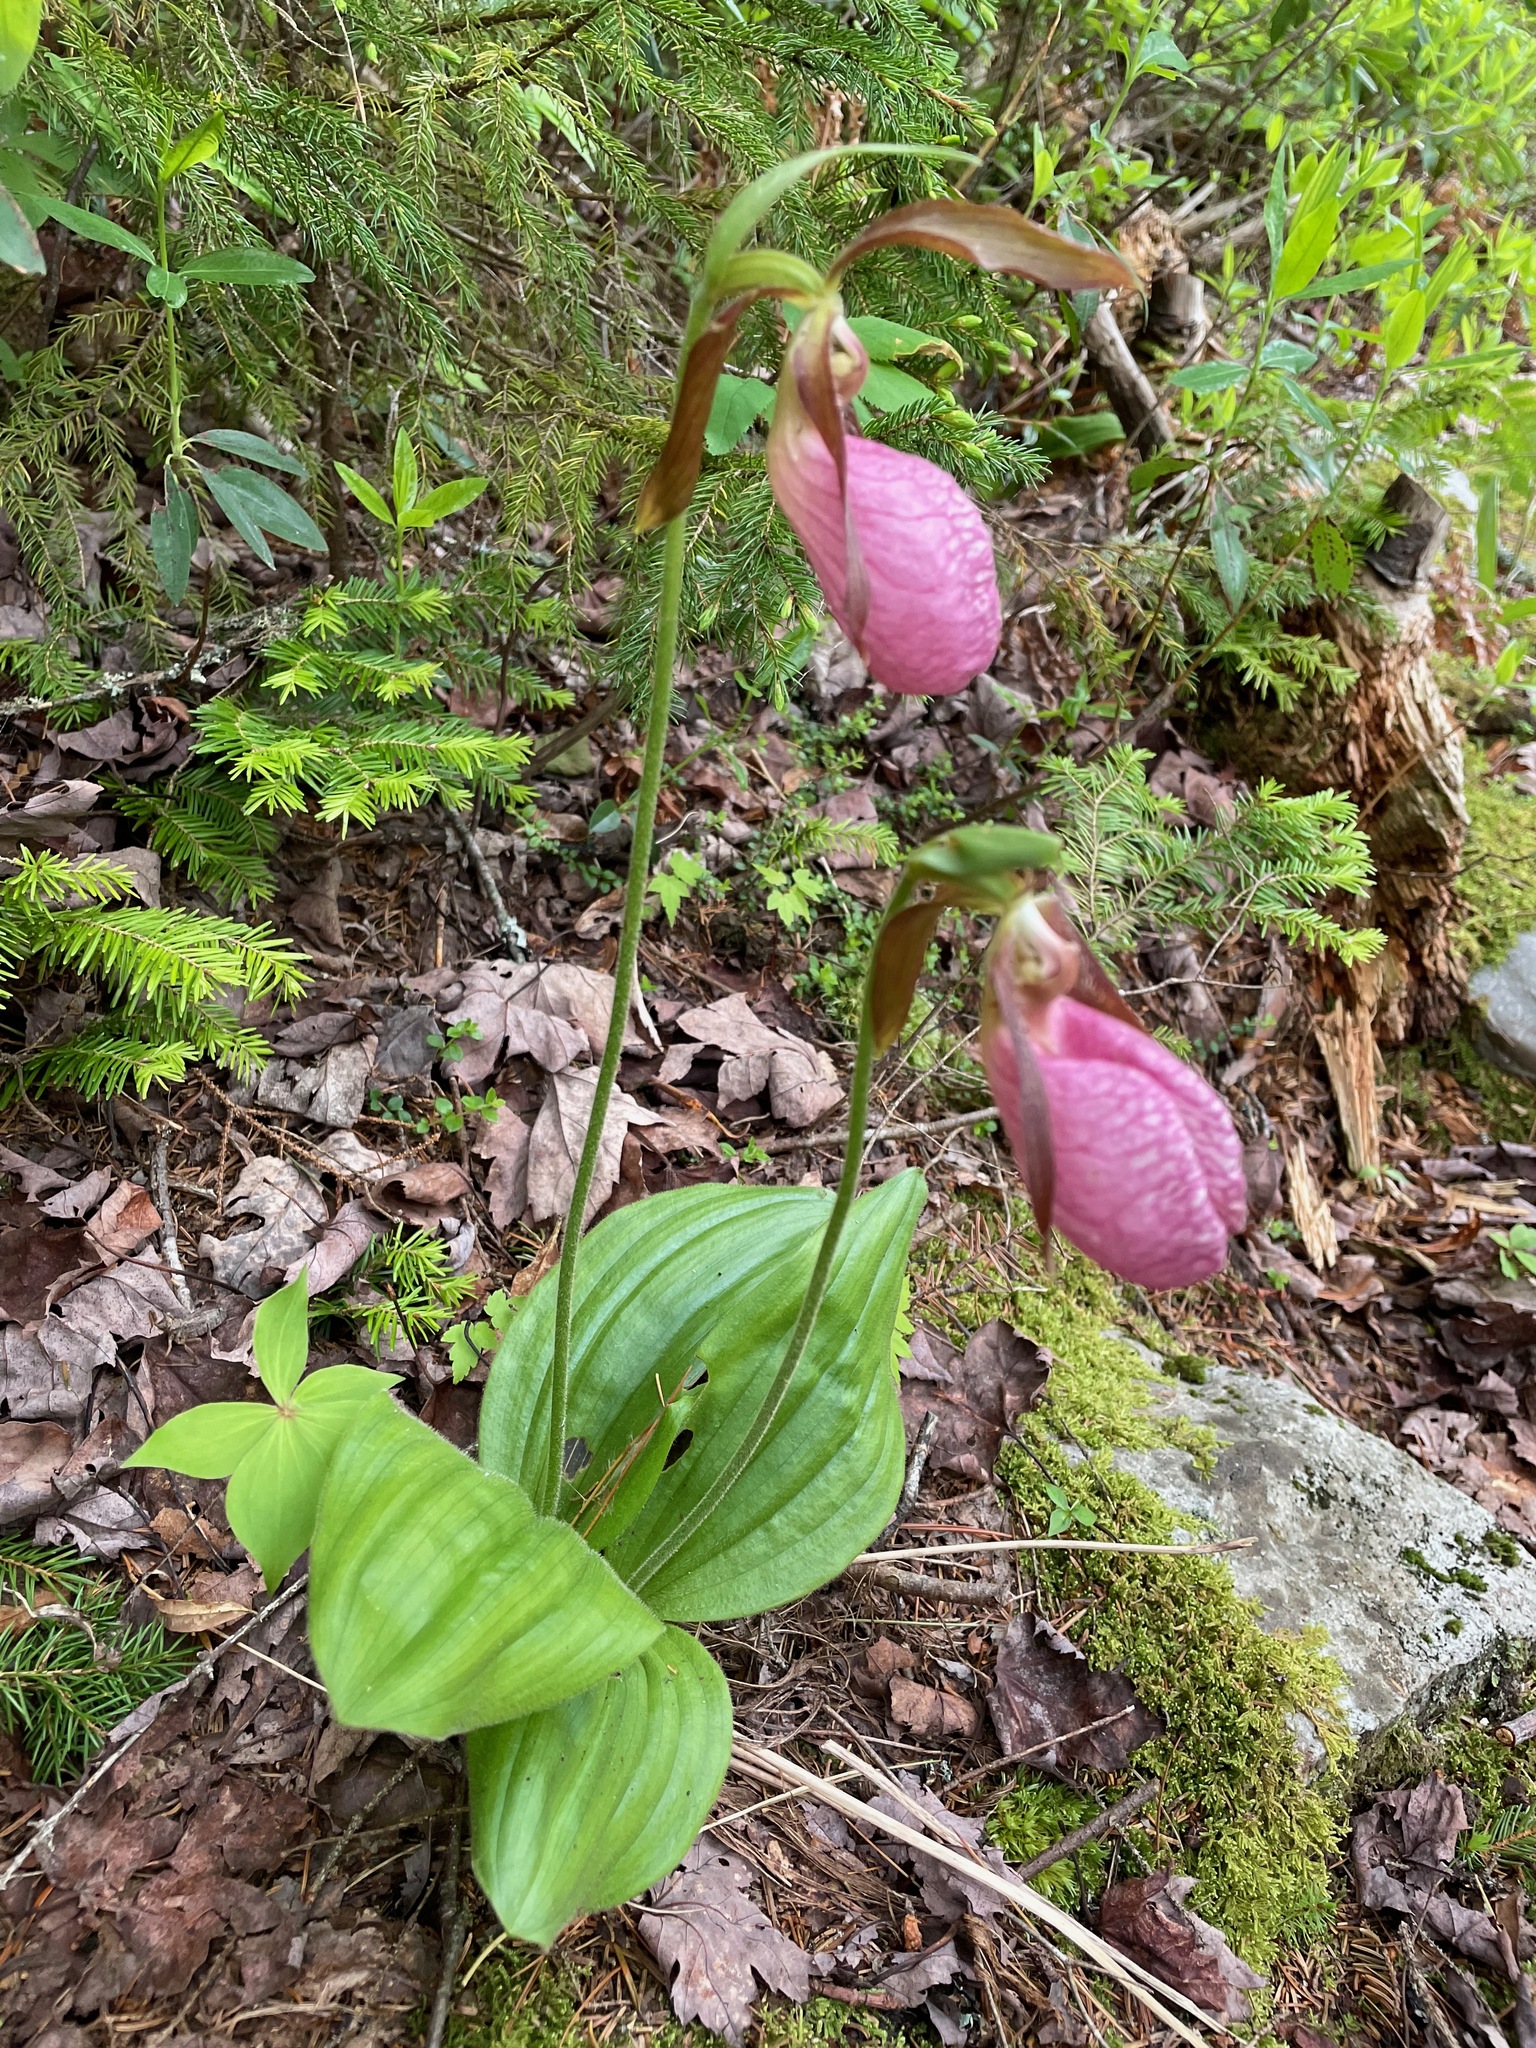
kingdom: Plantae
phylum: Tracheophyta
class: Liliopsida
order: Asparagales
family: Orchidaceae
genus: Cypripedium
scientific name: Cypripedium acaule
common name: Pink lady's-slipper
